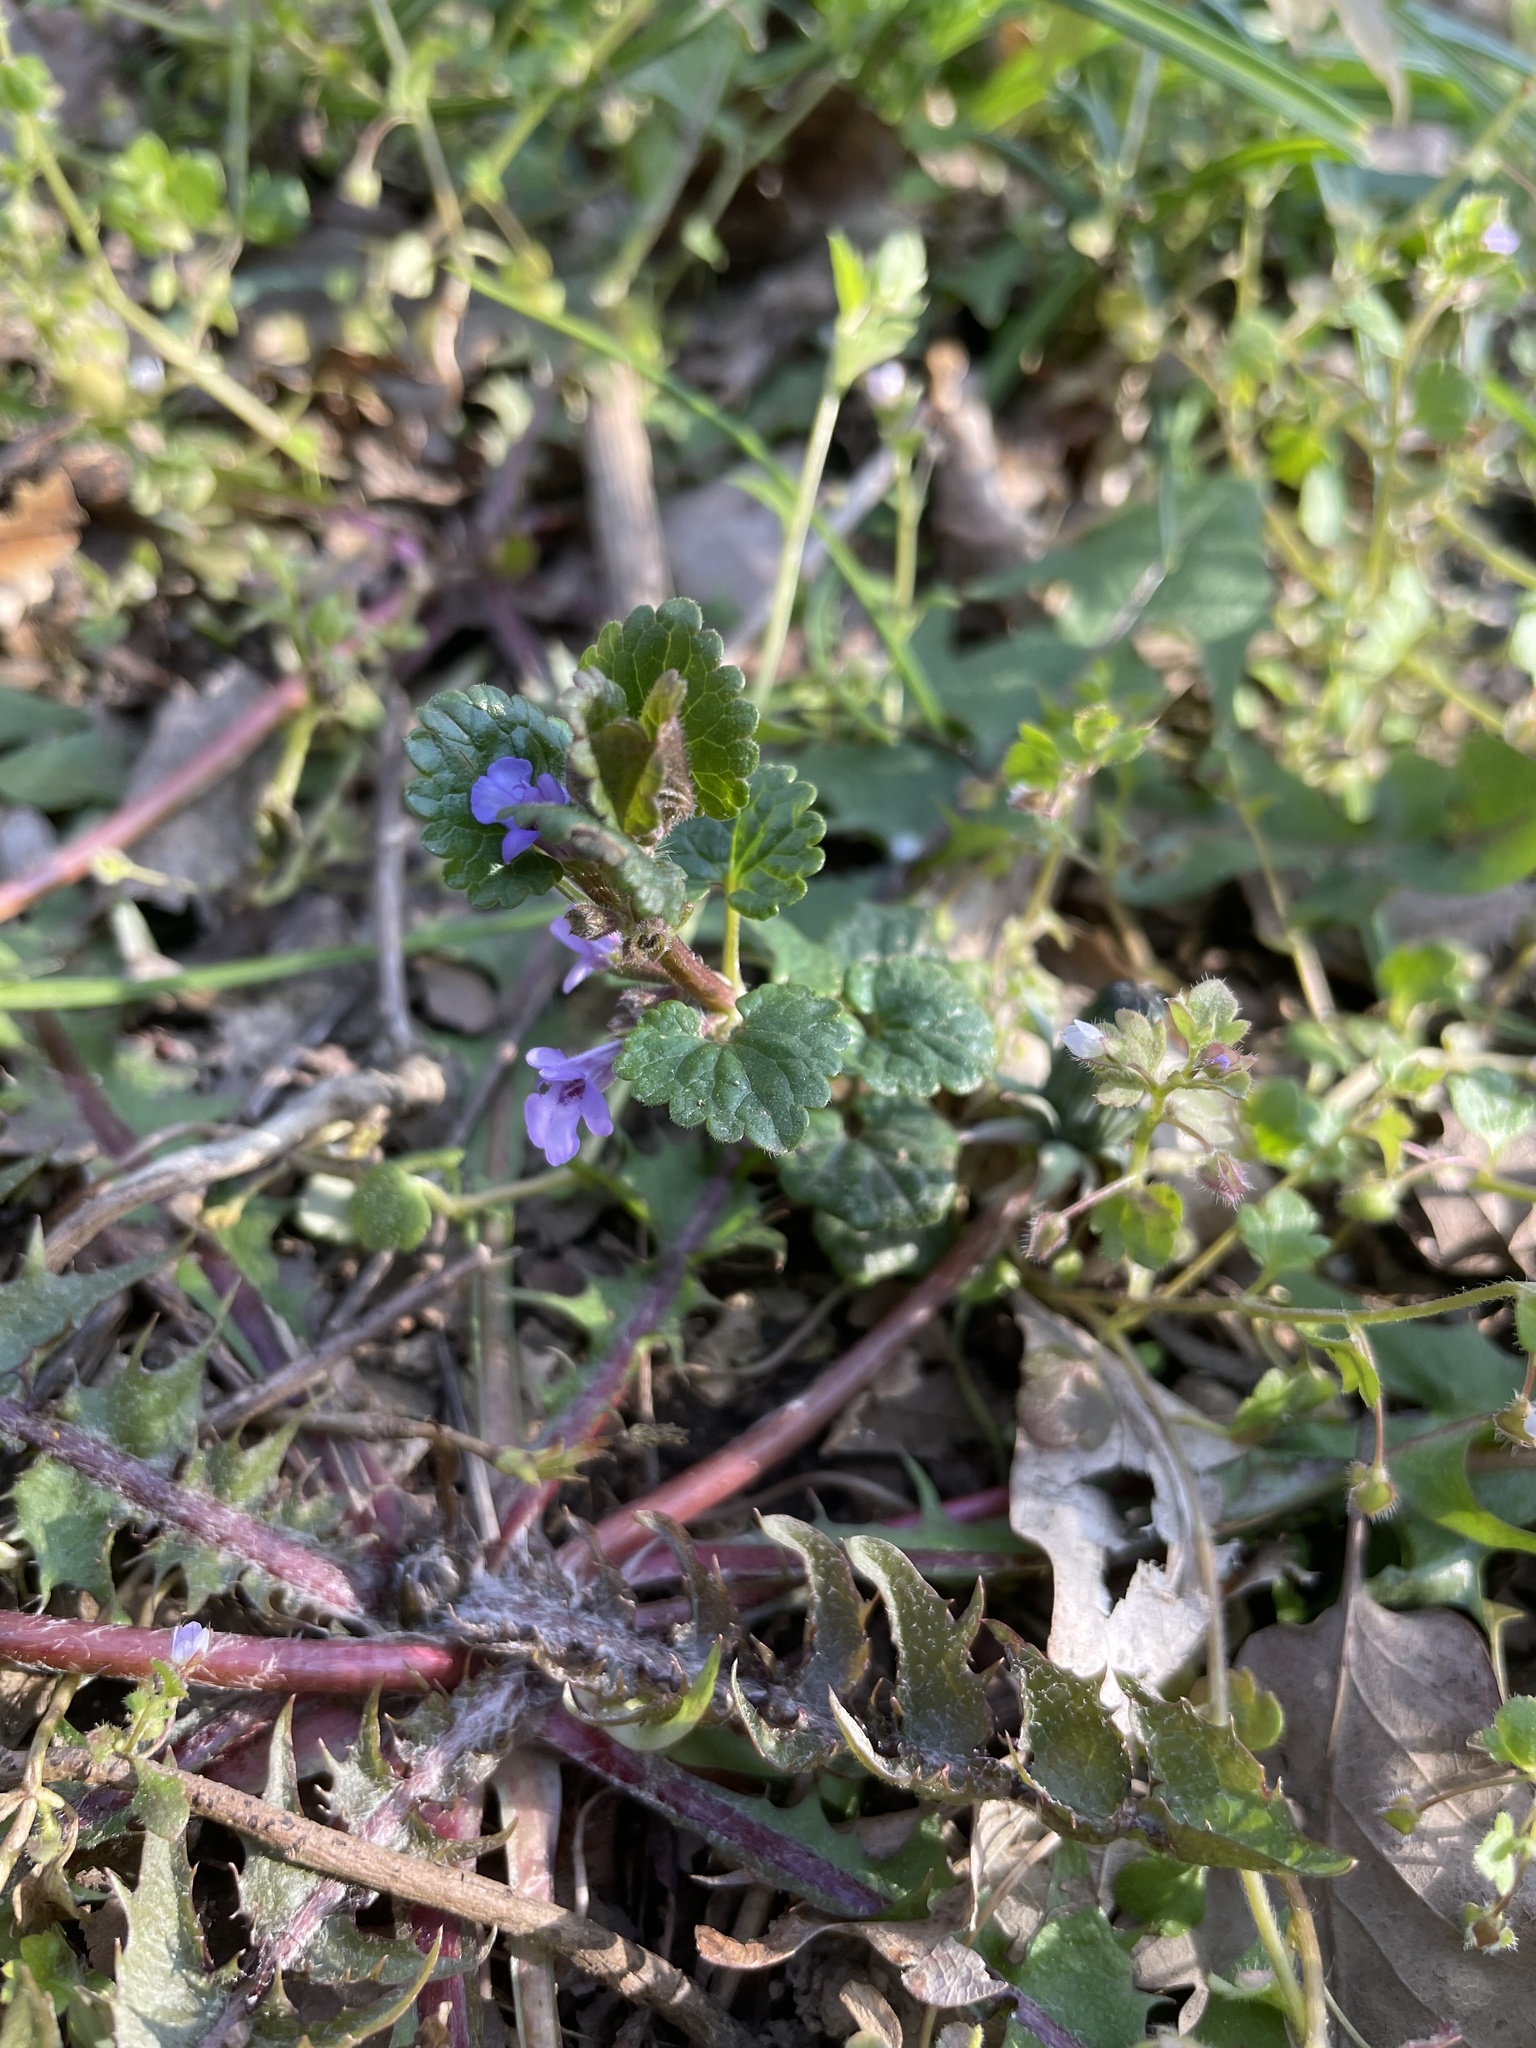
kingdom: Plantae
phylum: Tracheophyta
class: Magnoliopsida
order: Lamiales
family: Lamiaceae
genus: Glechoma
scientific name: Glechoma hederacea
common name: Ground ivy
